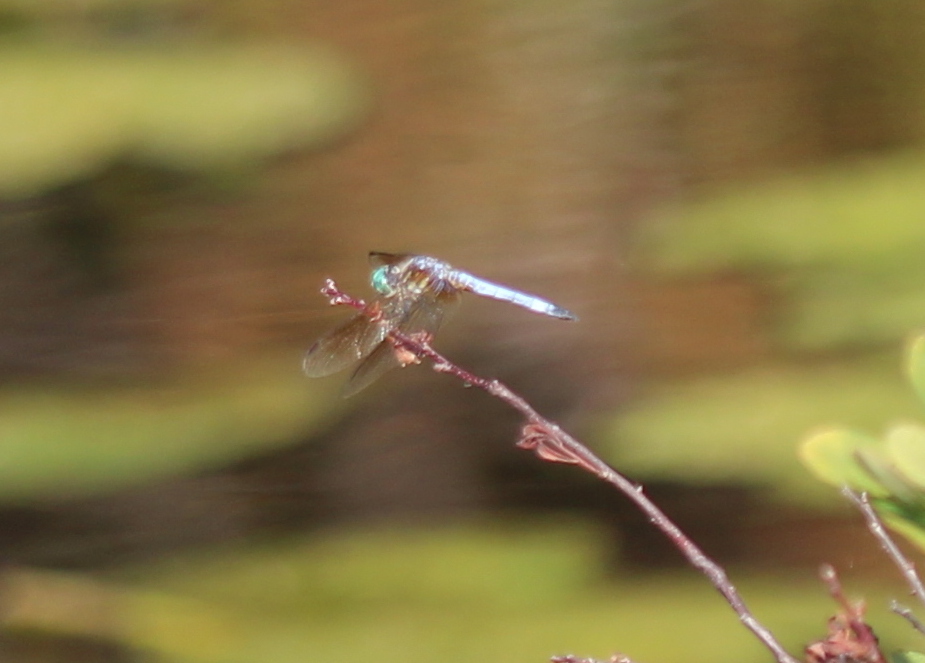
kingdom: Animalia
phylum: Arthropoda
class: Insecta
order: Odonata
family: Libellulidae
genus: Pachydiplax
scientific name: Pachydiplax longipennis
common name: Blue dasher
